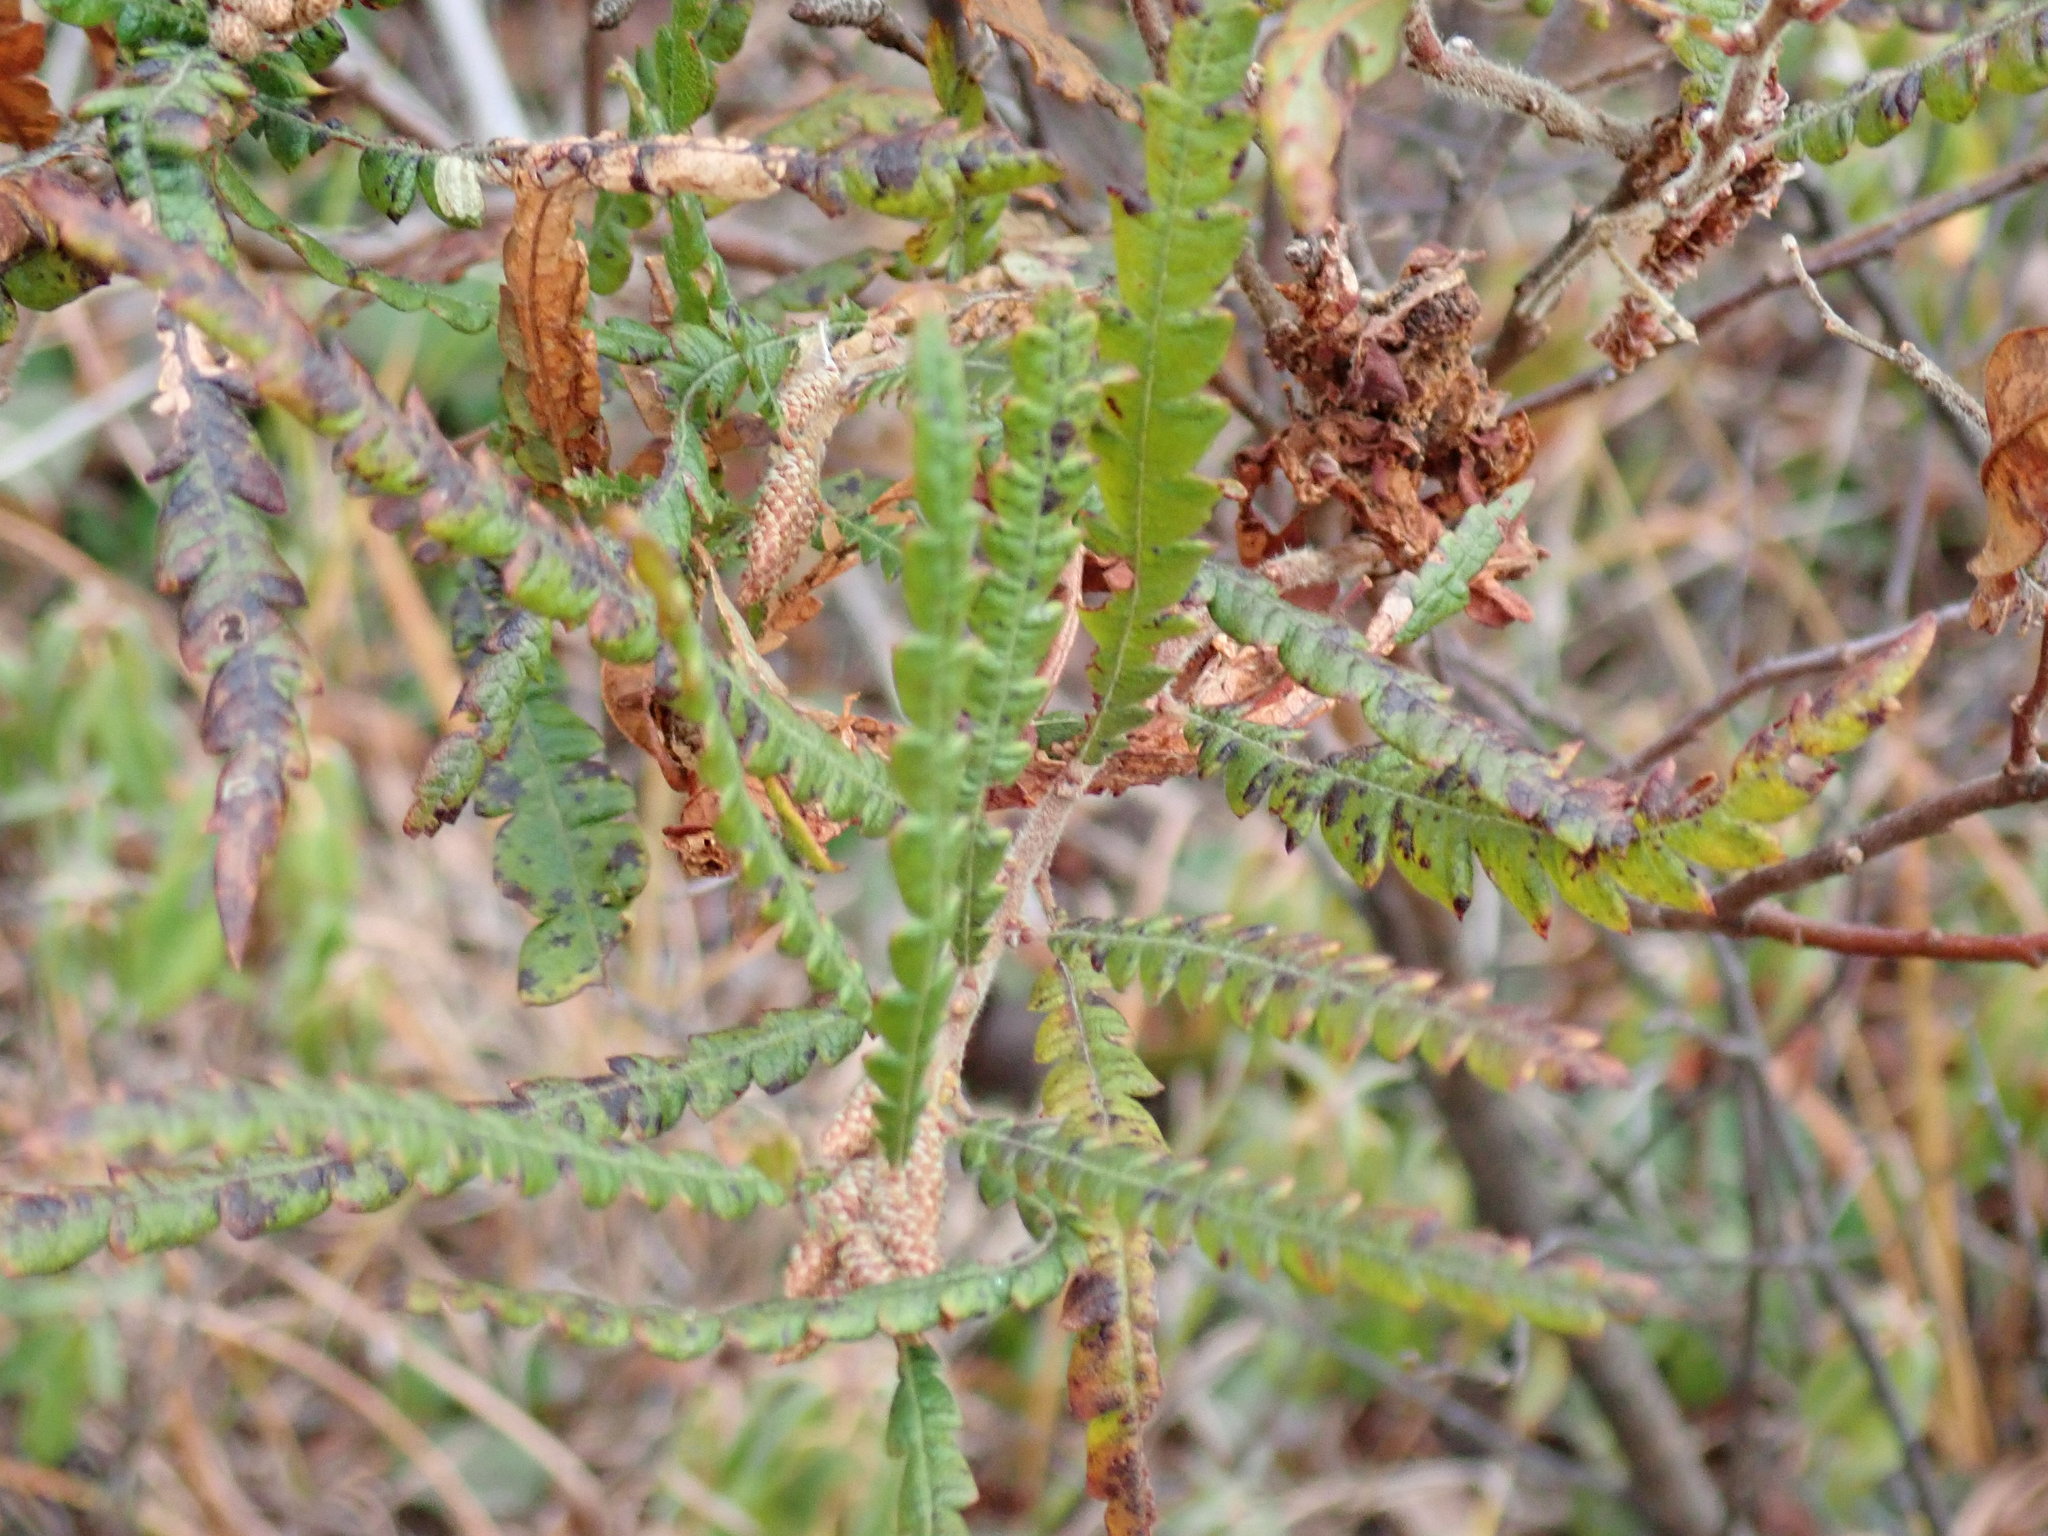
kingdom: Plantae
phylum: Tracheophyta
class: Magnoliopsida
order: Fagales
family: Myricaceae
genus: Comptonia
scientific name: Comptonia peregrina
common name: Sweet-fern
